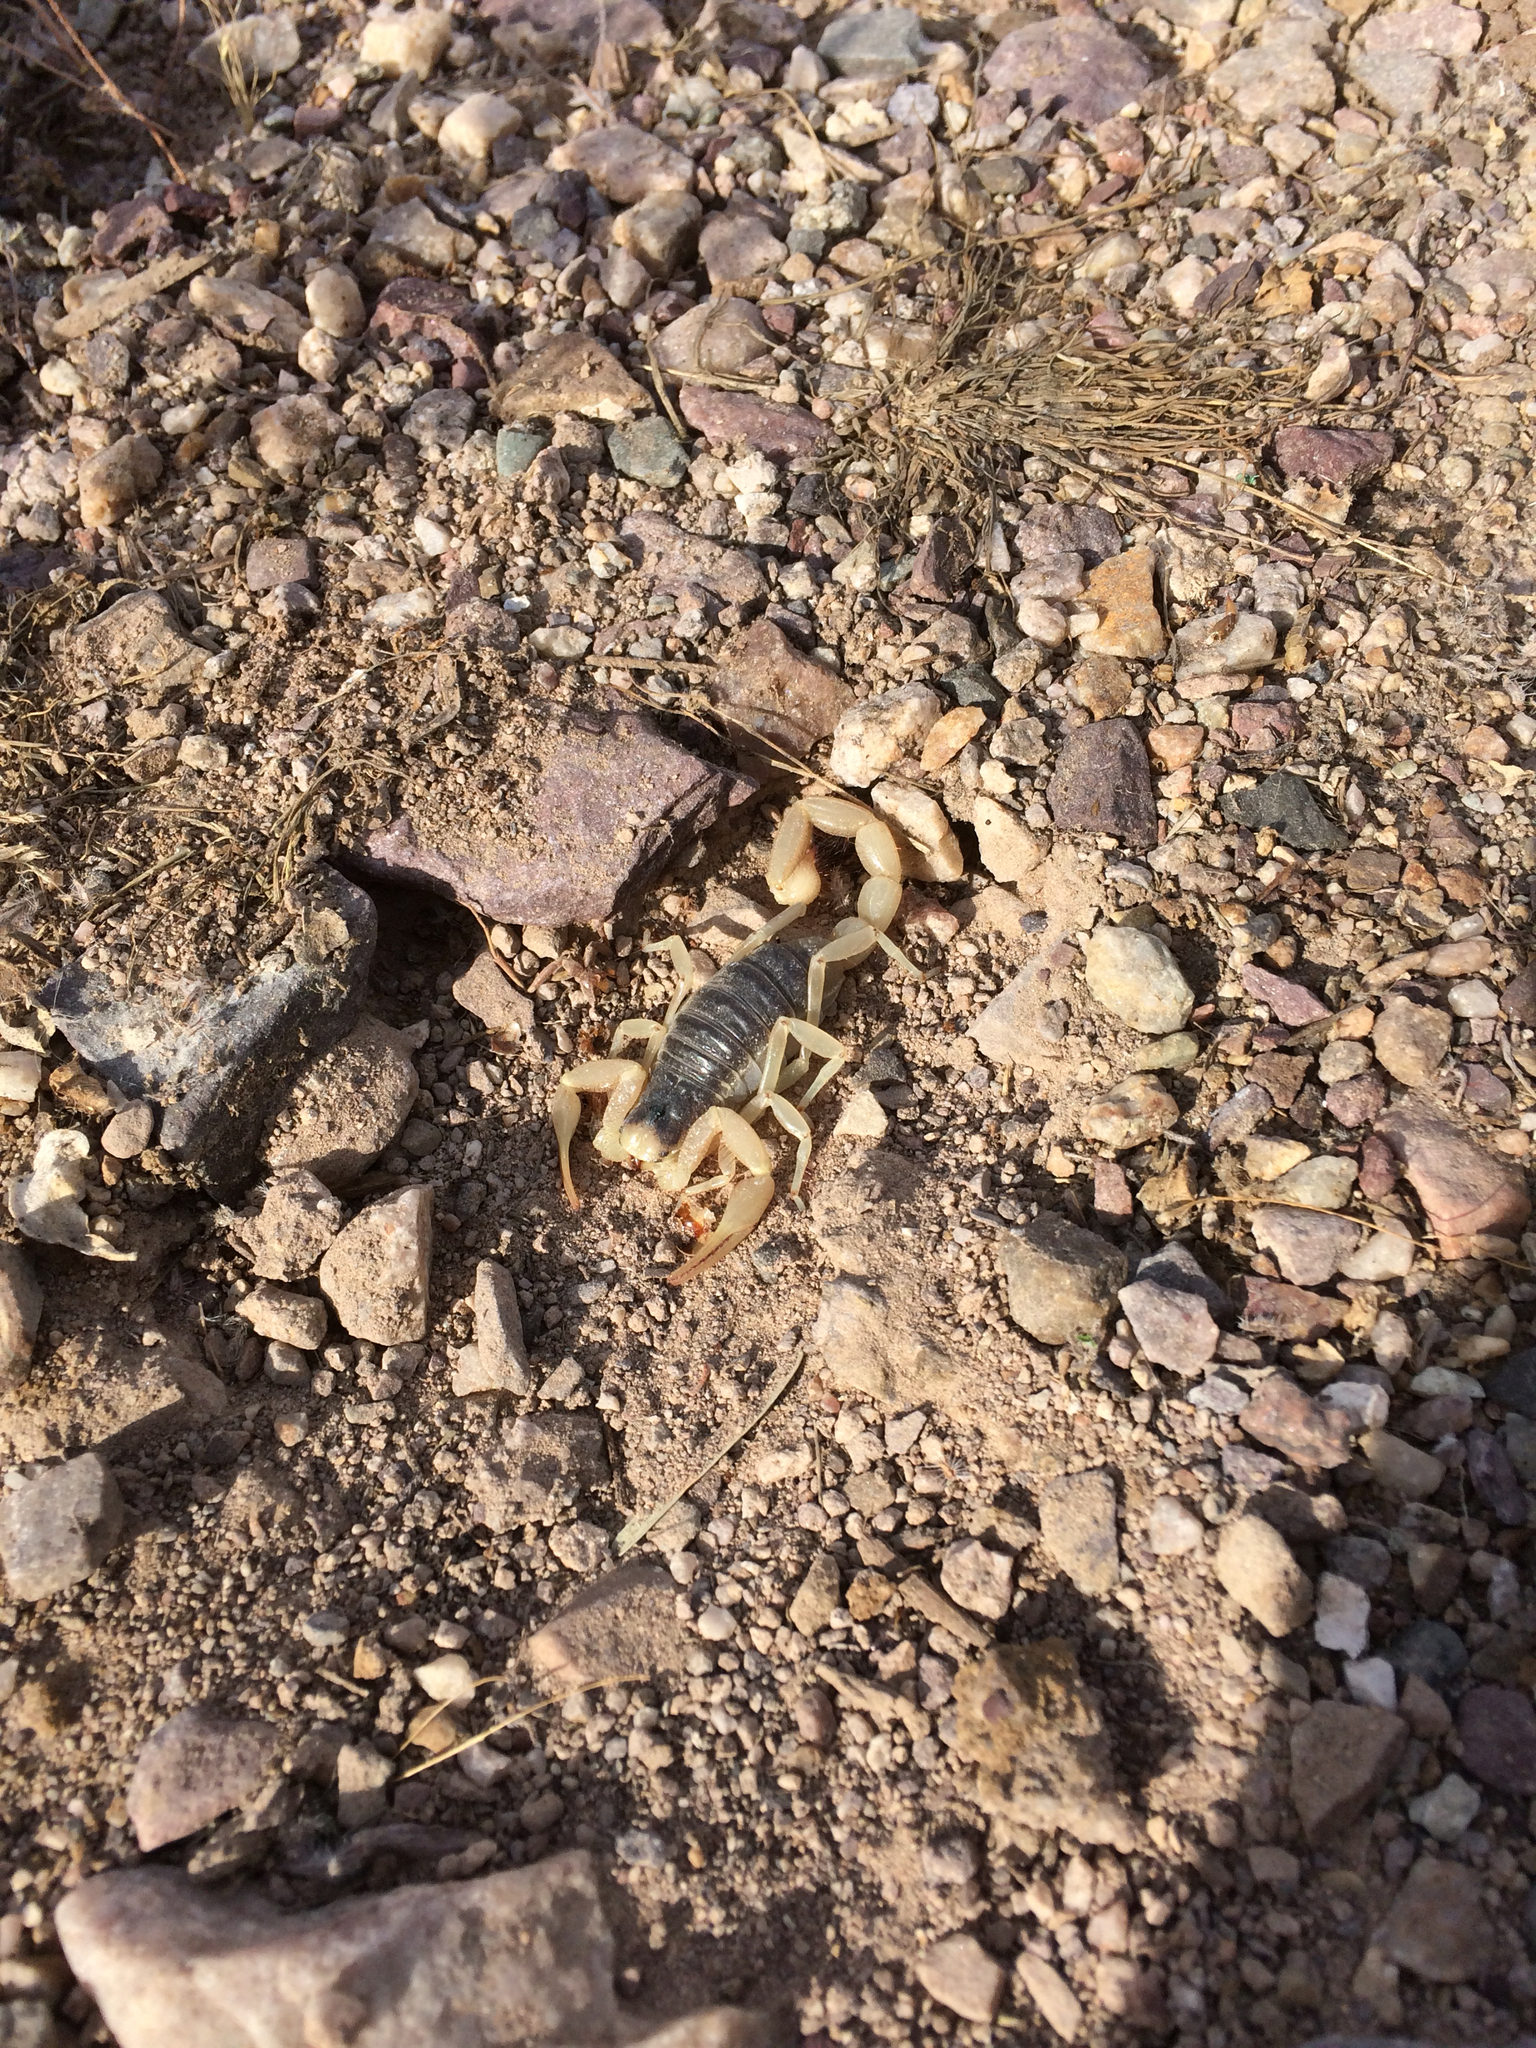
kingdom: Animalia
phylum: Arthropoda
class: Arachnida
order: Scorpiones
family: Hadruridae
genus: Hadrurus
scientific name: Hadrurus arizonensis
